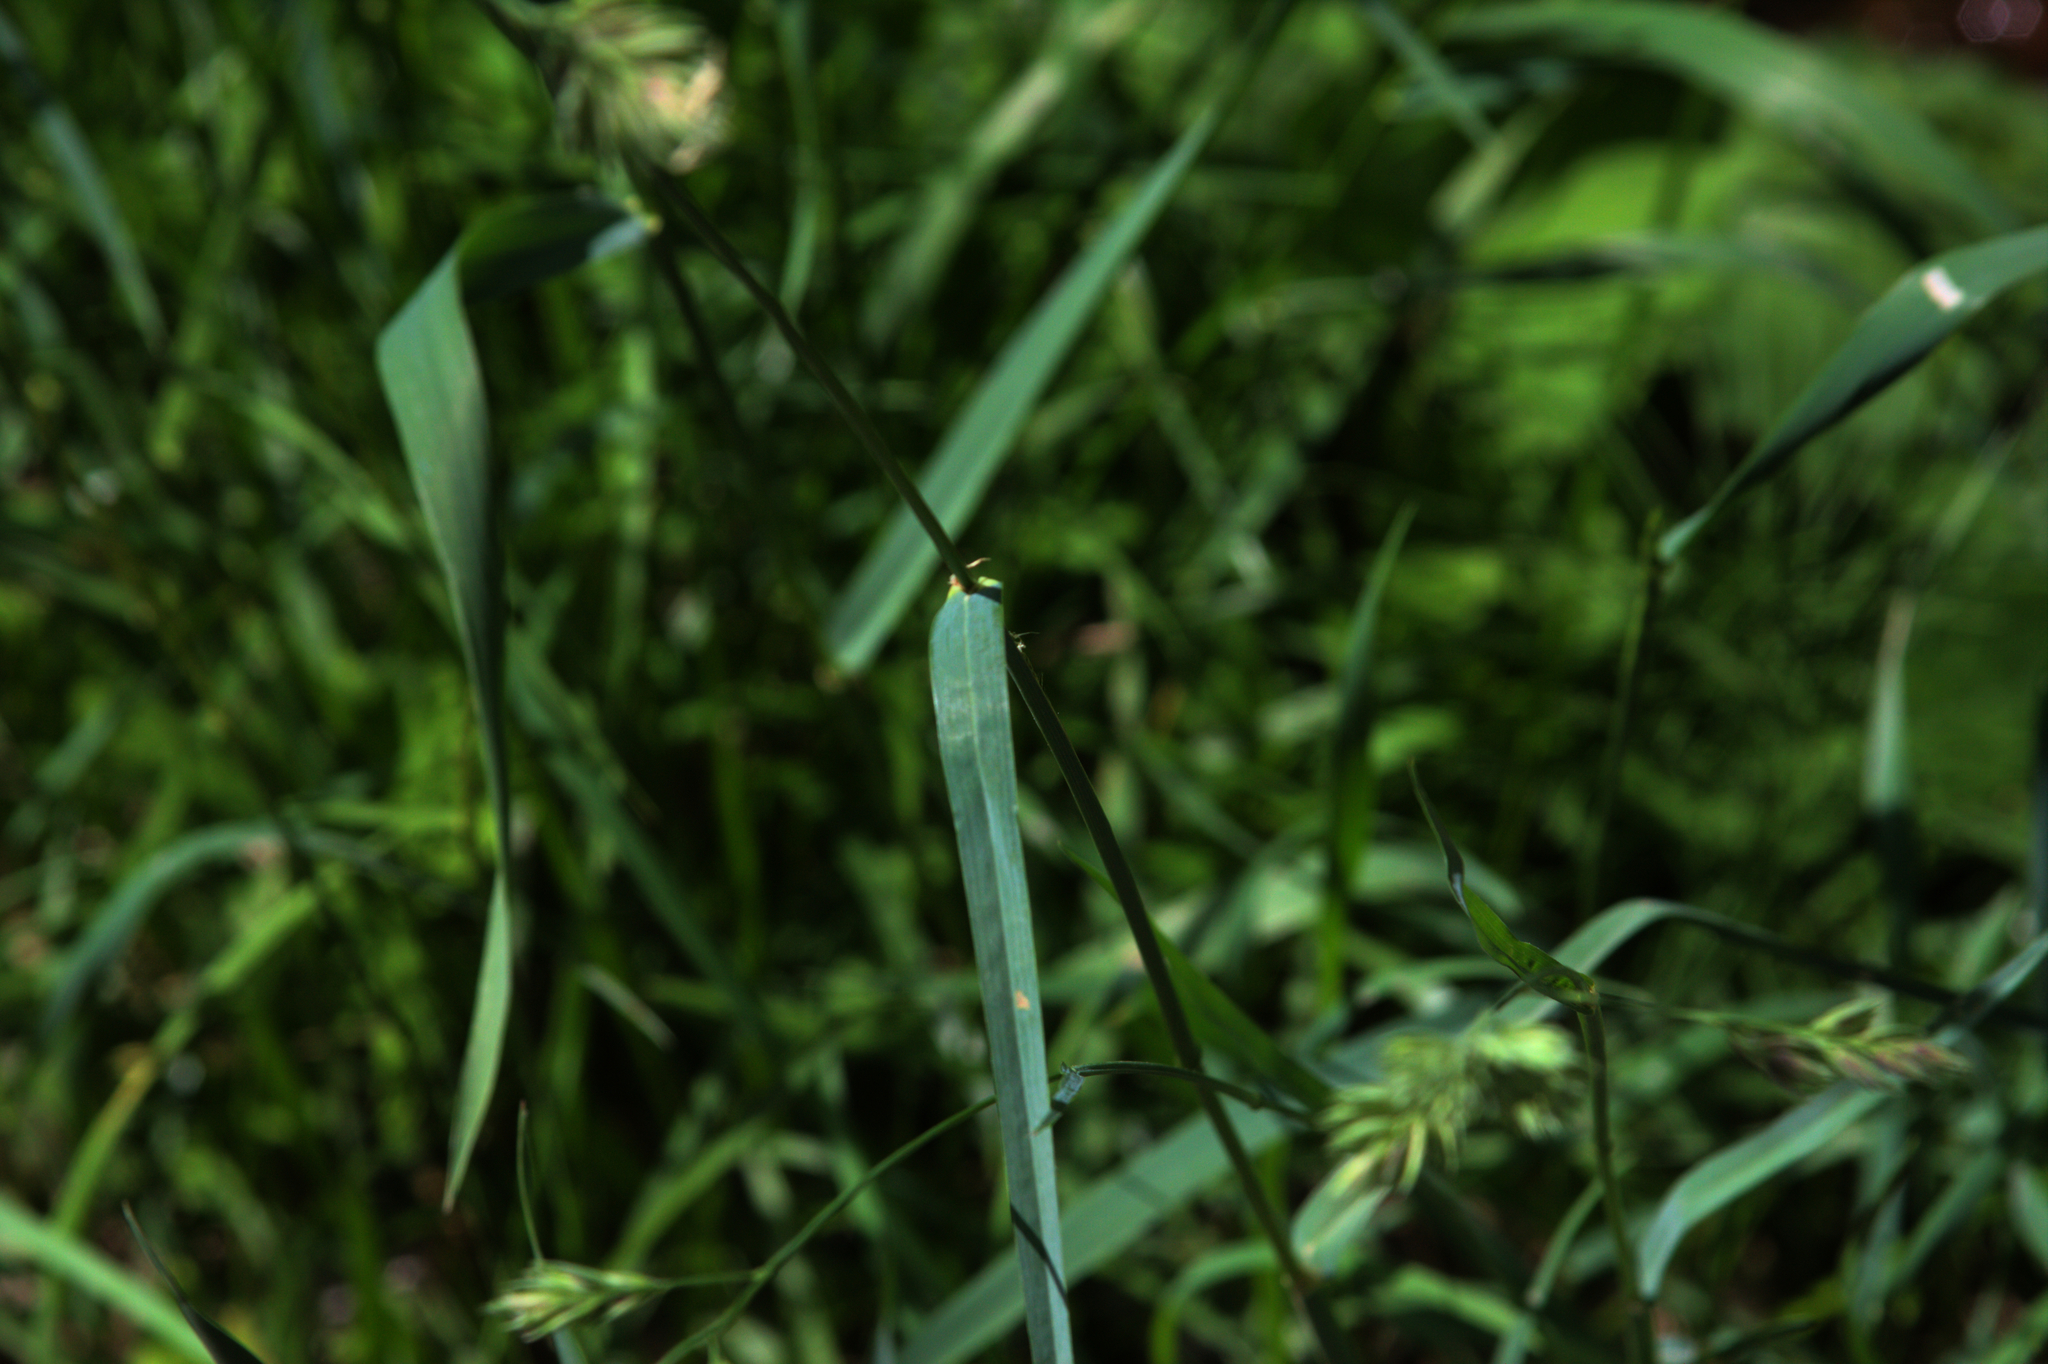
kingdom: Plantae
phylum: Tracheophyta
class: Liliopsida
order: Poales
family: Poaceae
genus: Dactylis
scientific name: Dactylis glomerata
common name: Orchardgrass
